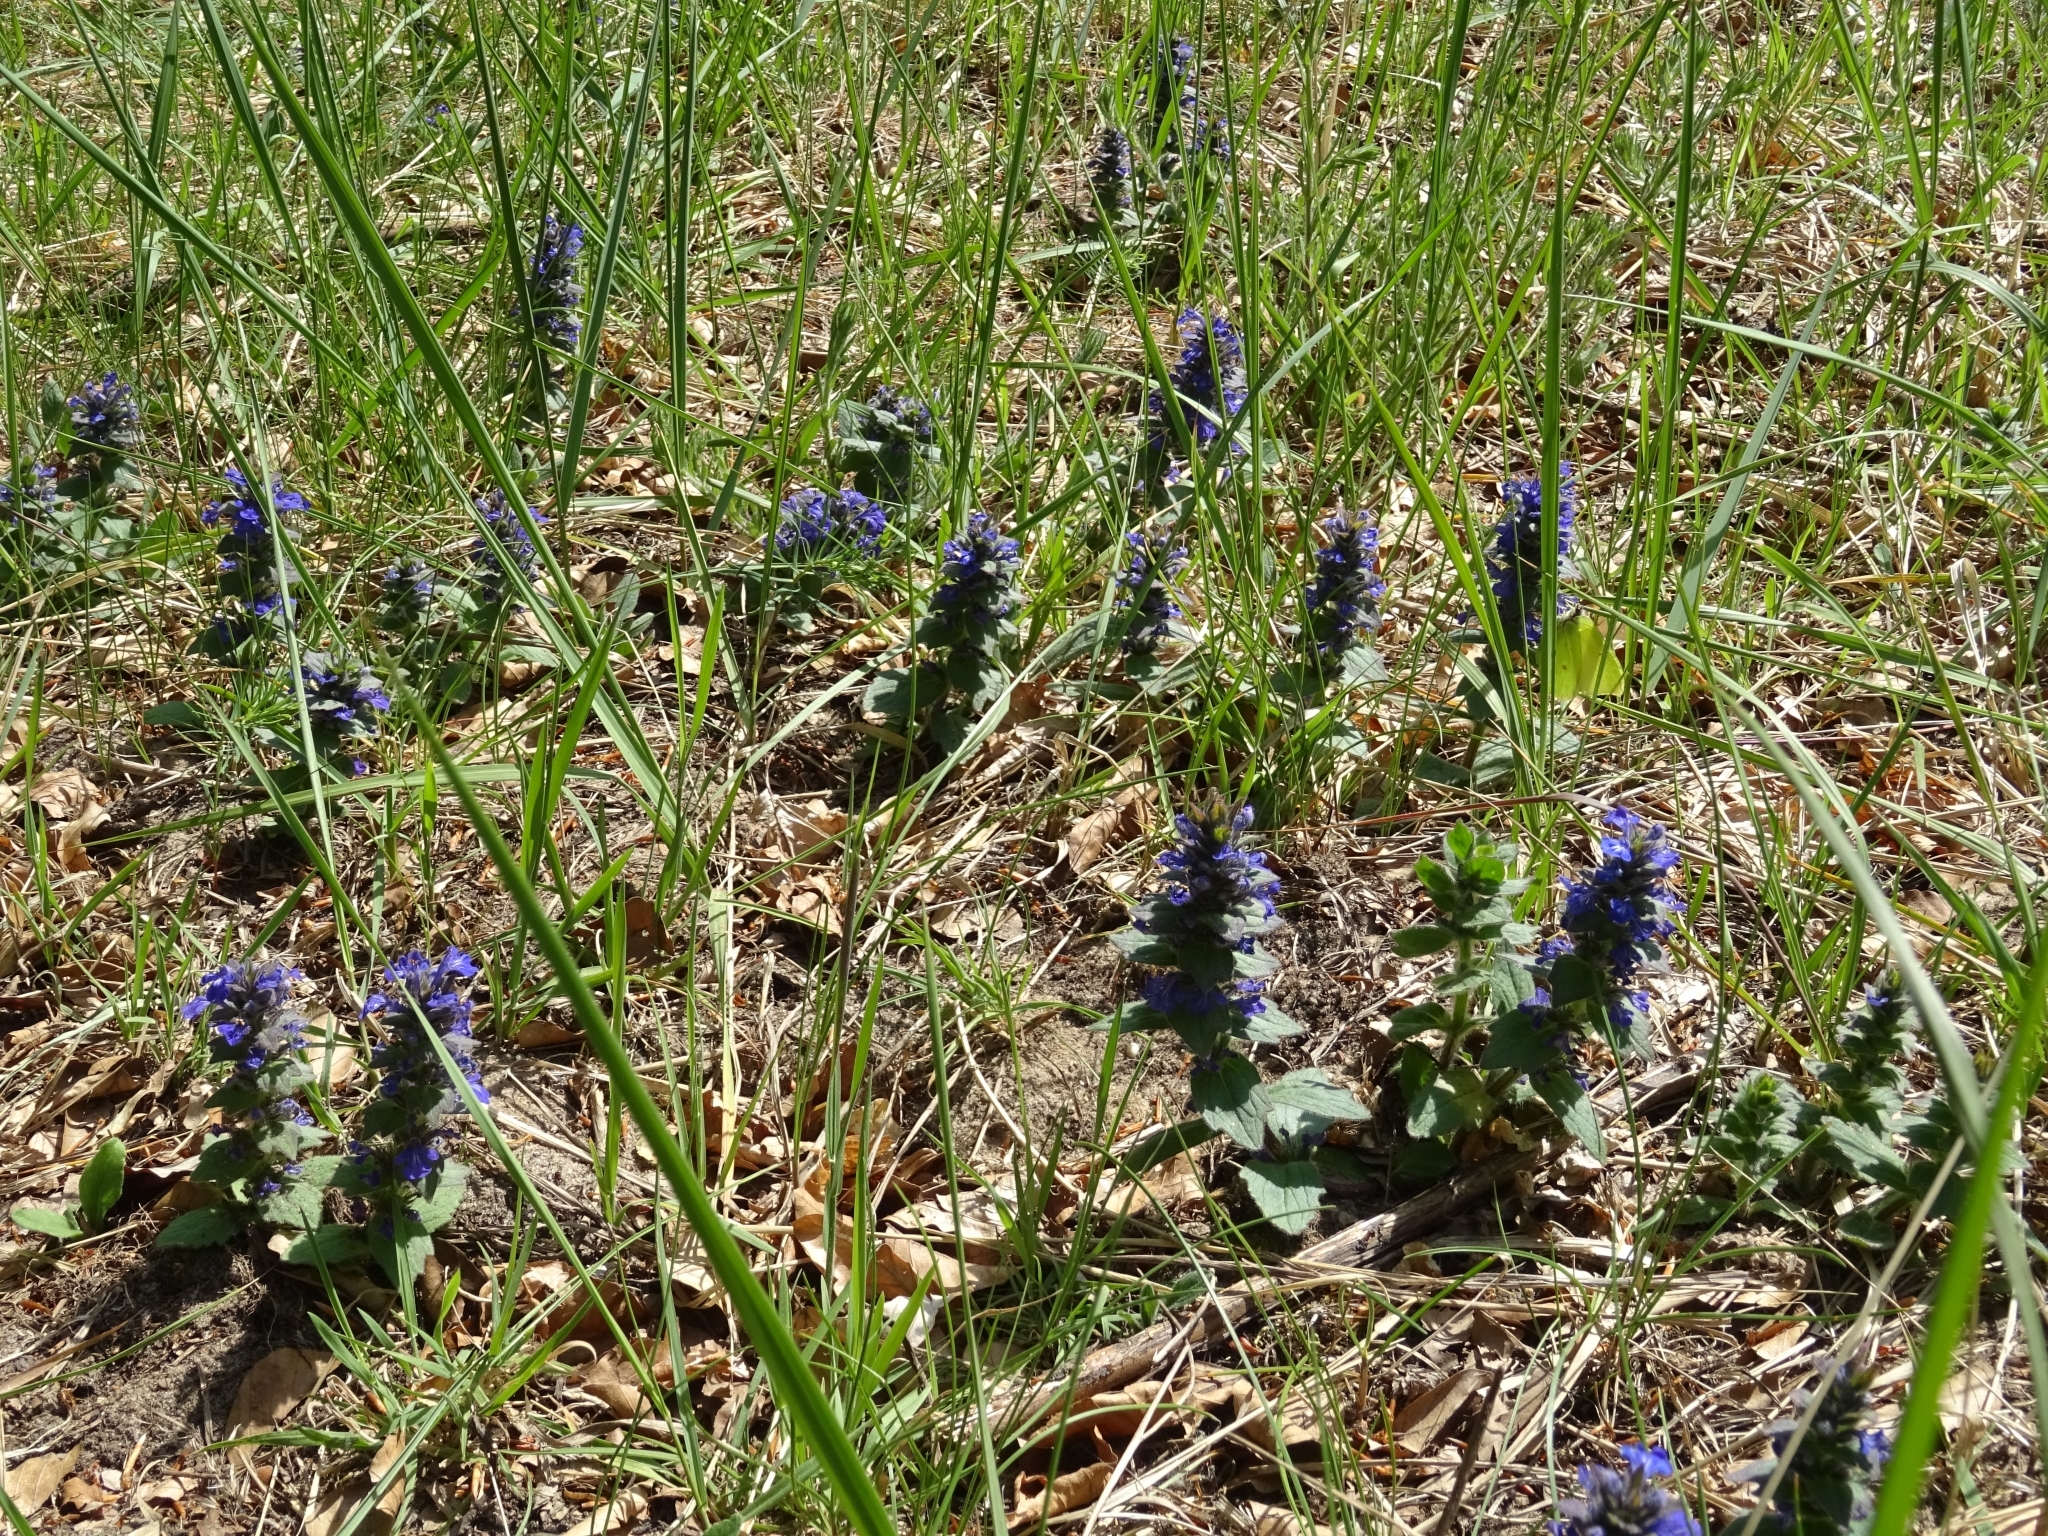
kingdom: Plantae
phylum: Tracheophyta
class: Magnoliopsida
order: Lamiales
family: Lamiaceae
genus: Ajuga
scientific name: Ajuga reptans
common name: Bugle
